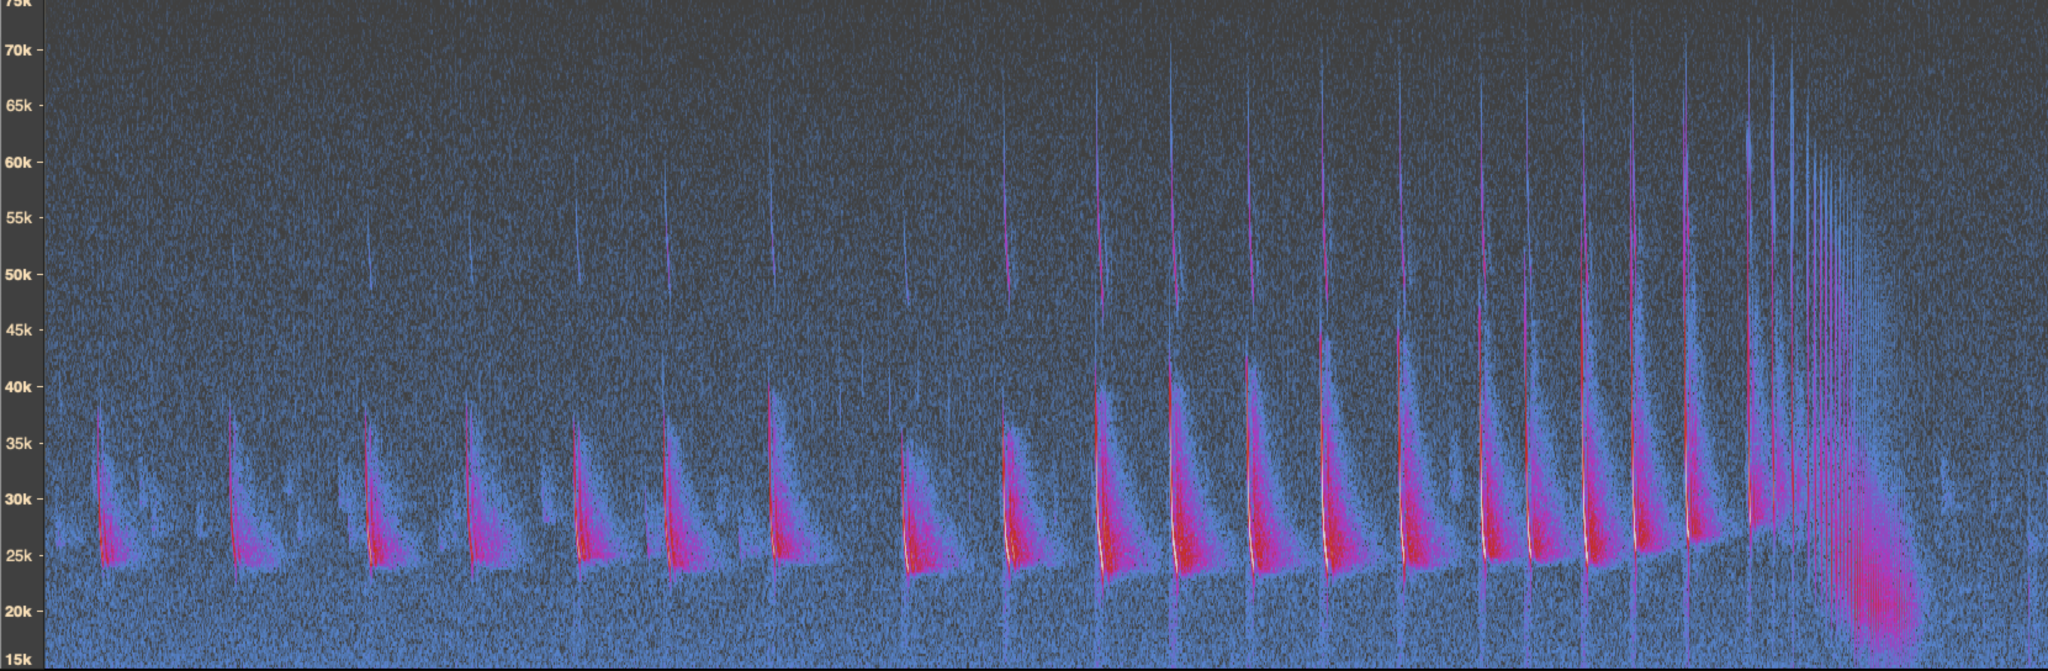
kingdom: Animalia
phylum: Chordata
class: Mammalia
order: Chiroptera
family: Vespertilionidae
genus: Eptesicus
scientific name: Eptesicus fuscus
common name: Big brown bat
